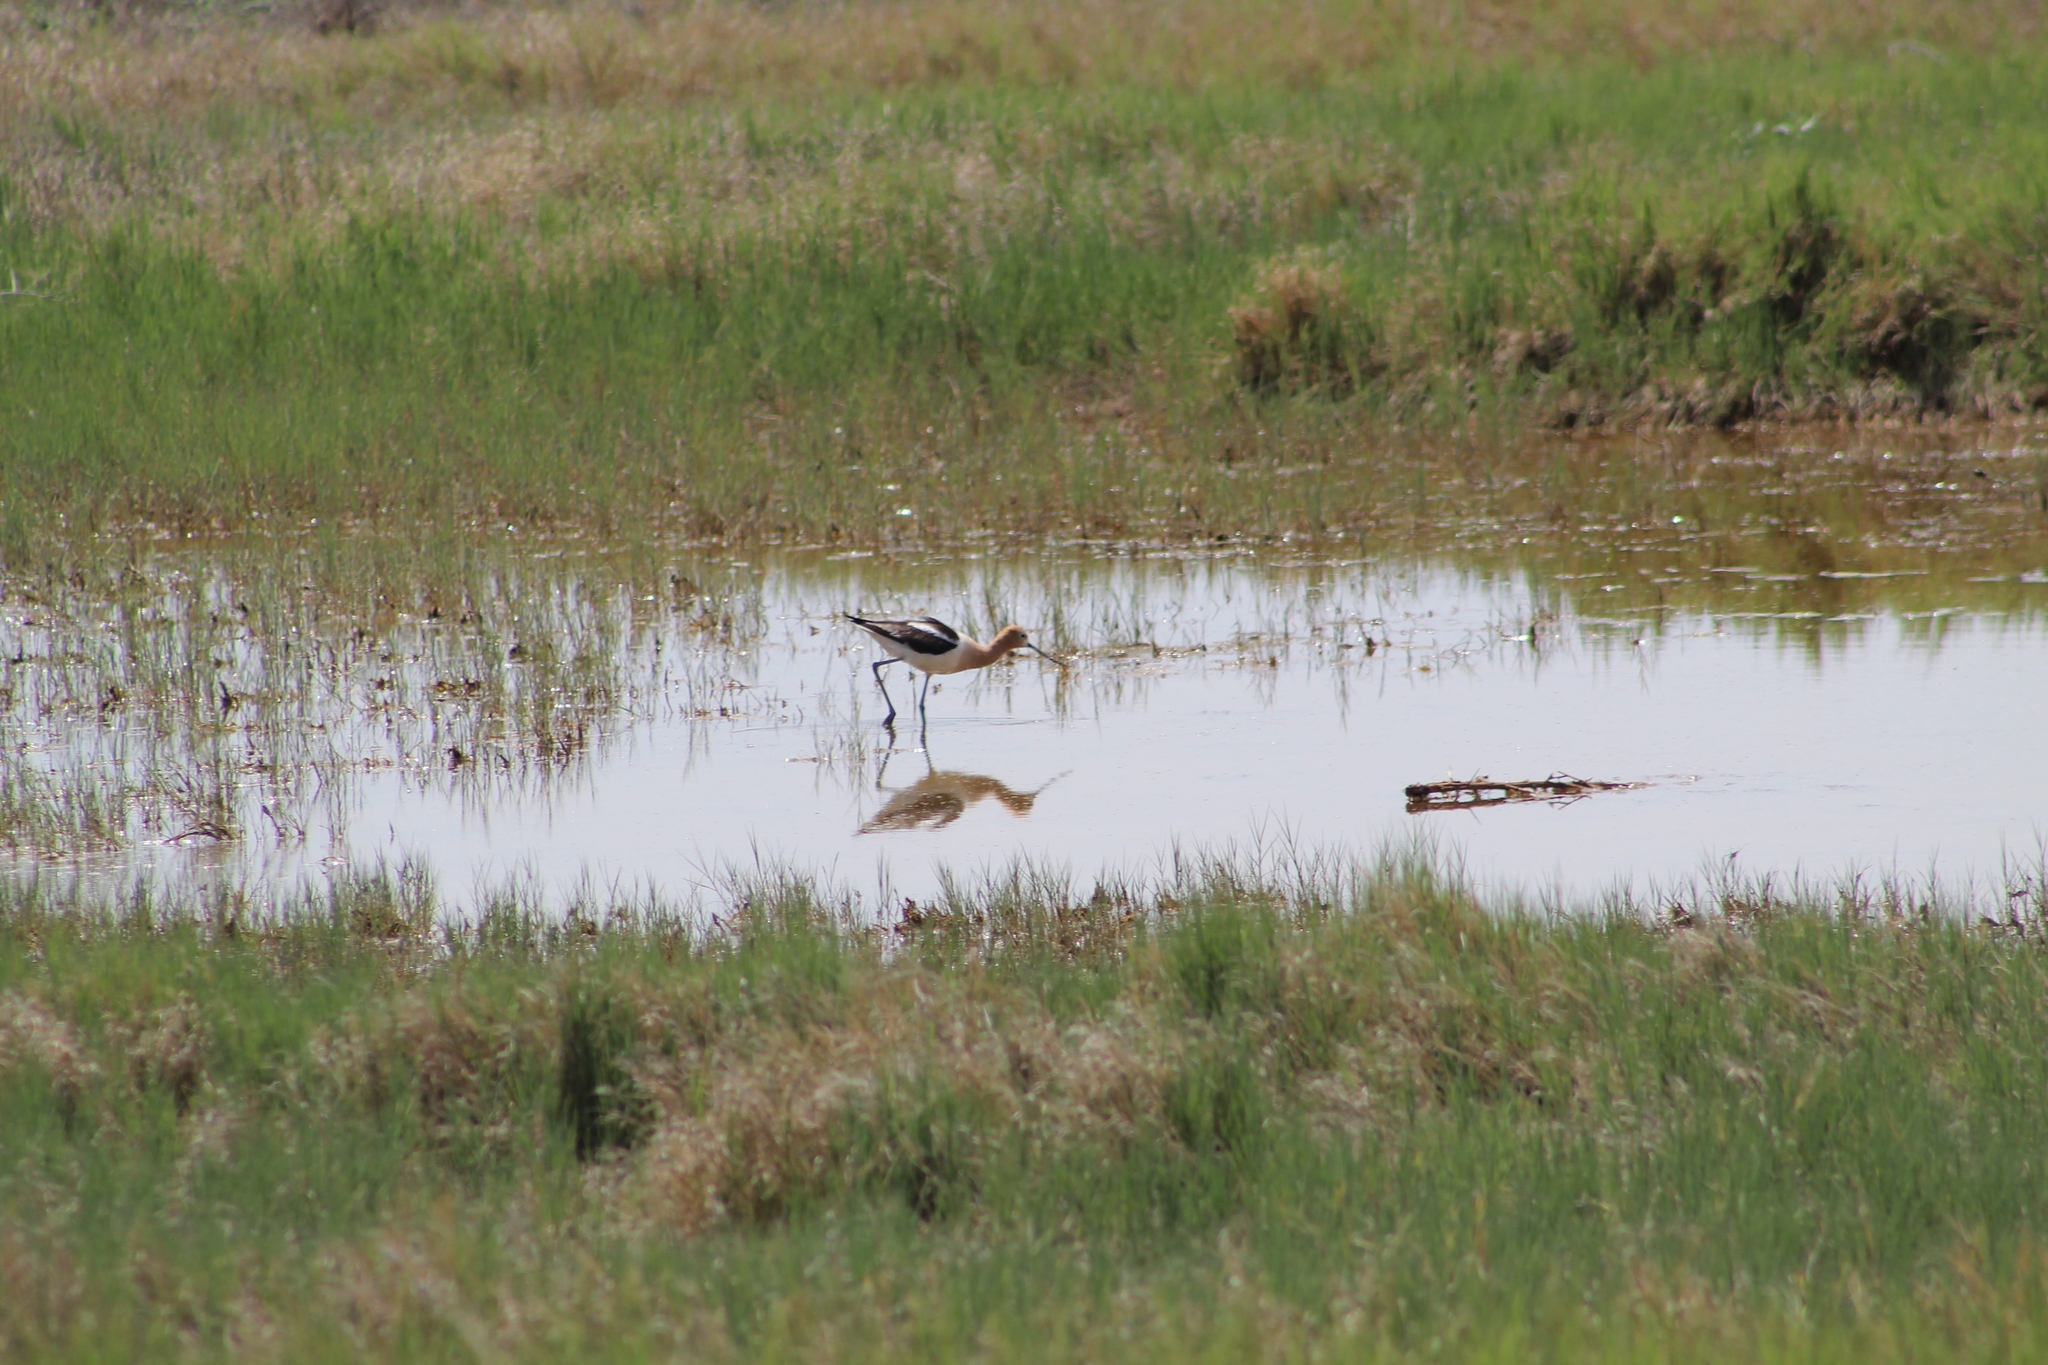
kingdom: Animalia
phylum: Chordata
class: Aves
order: Charadriiformes
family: Recurvirostridae
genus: Recurvirostra
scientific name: Recurvirostra americana
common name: American avocet
